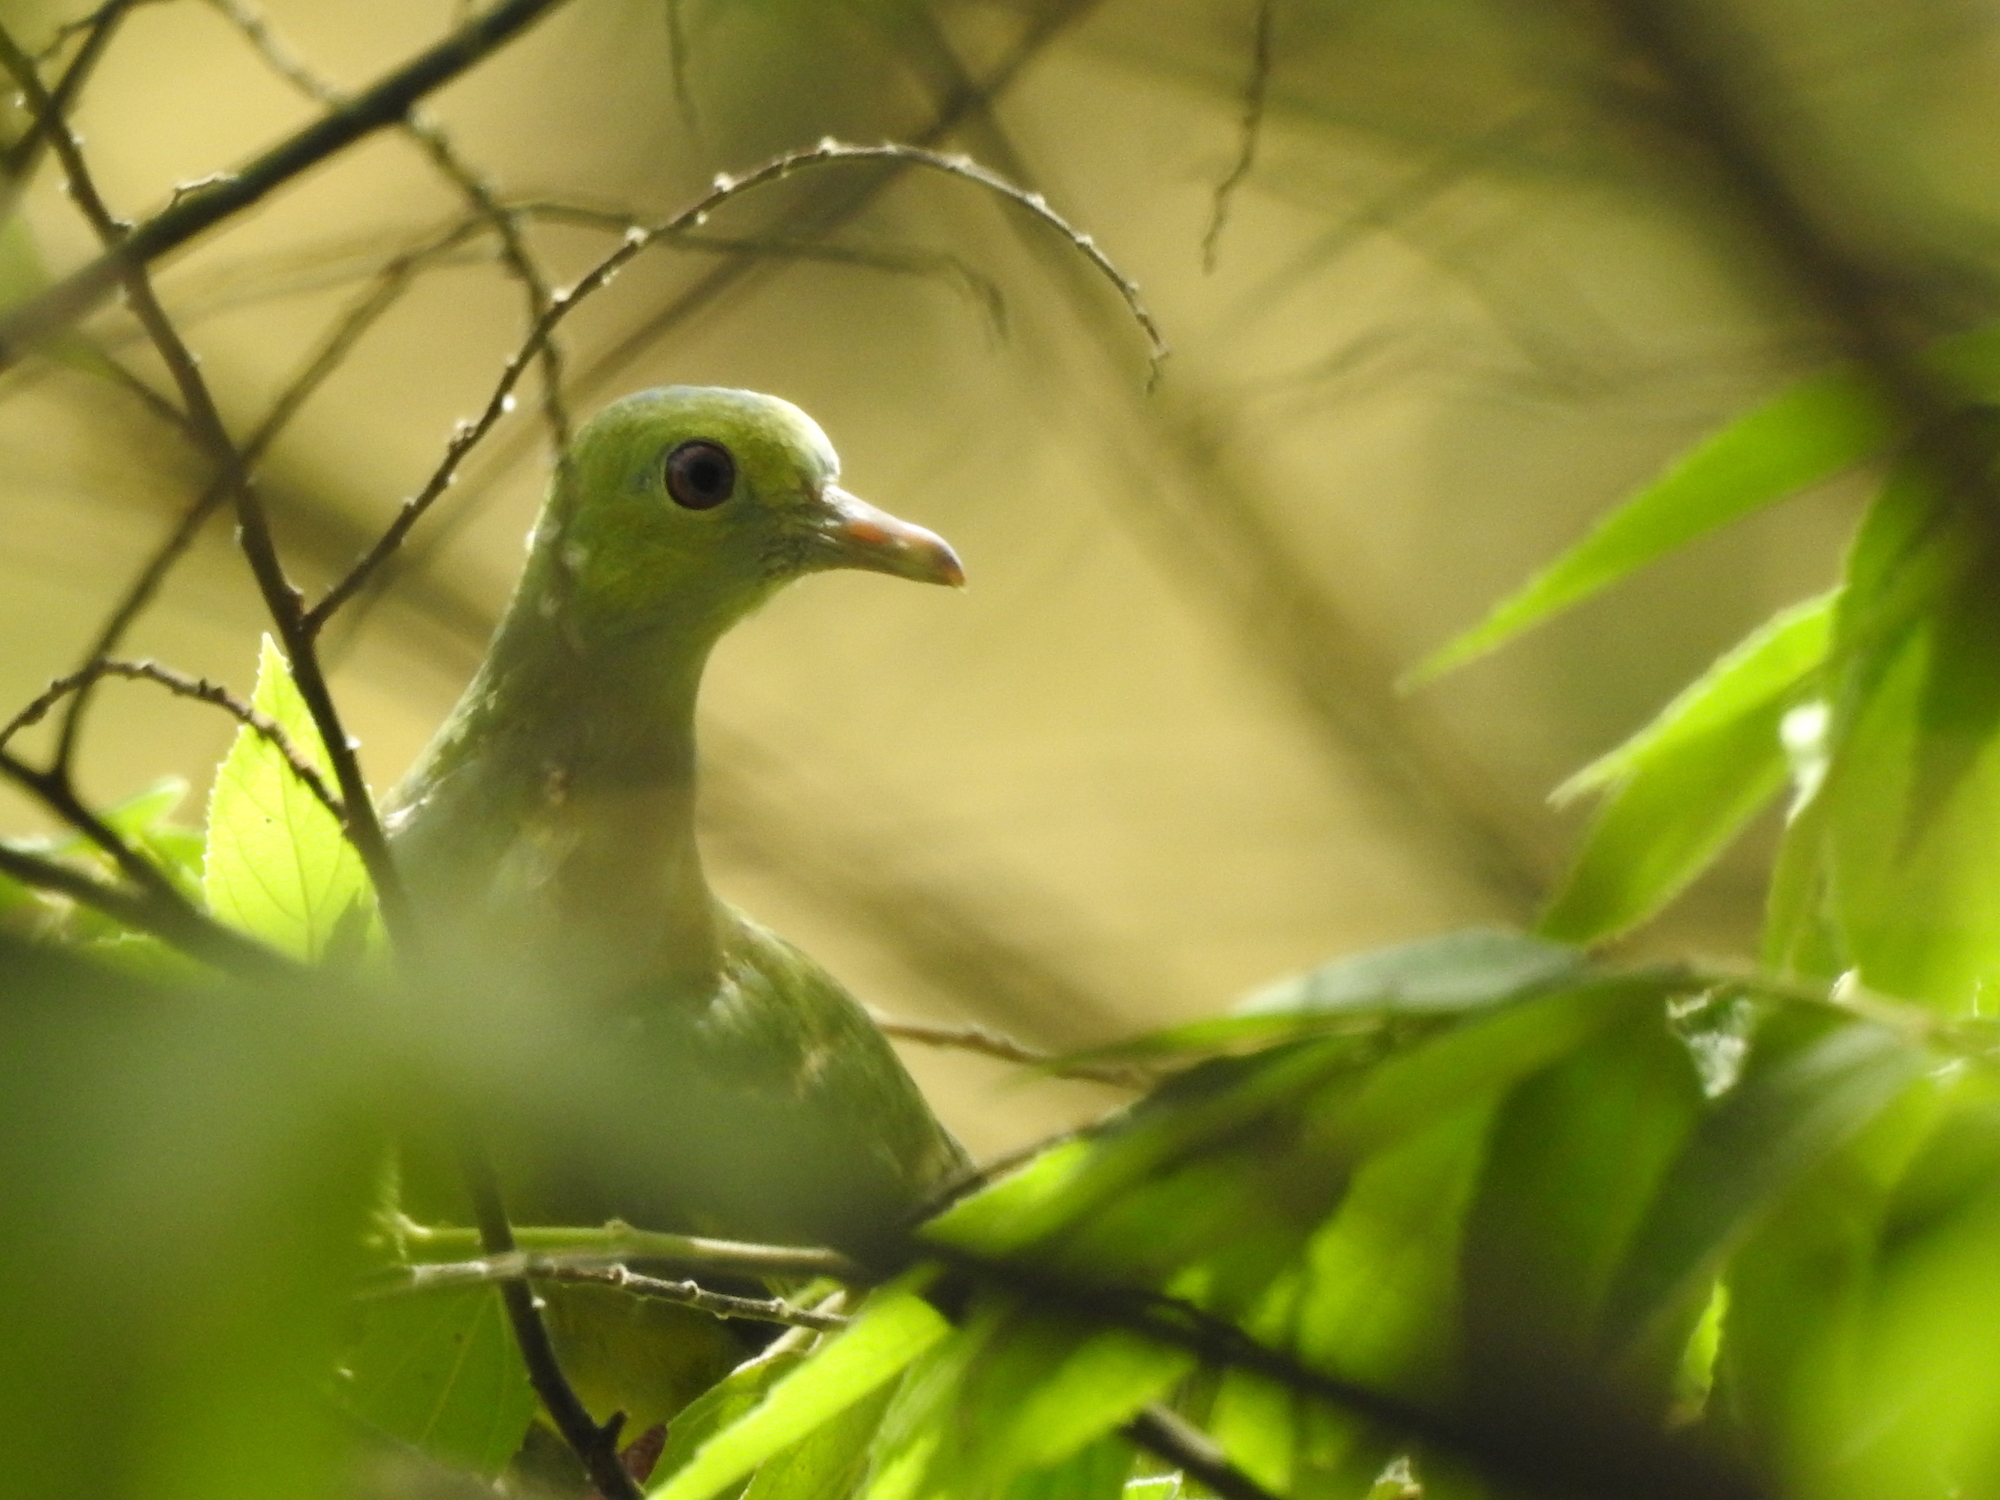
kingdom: Animalia
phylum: Chordata
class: Aves
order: Columbiformes
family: Columbidae
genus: Treron
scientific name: Treron vernans
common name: Pink-necked green pigeon
